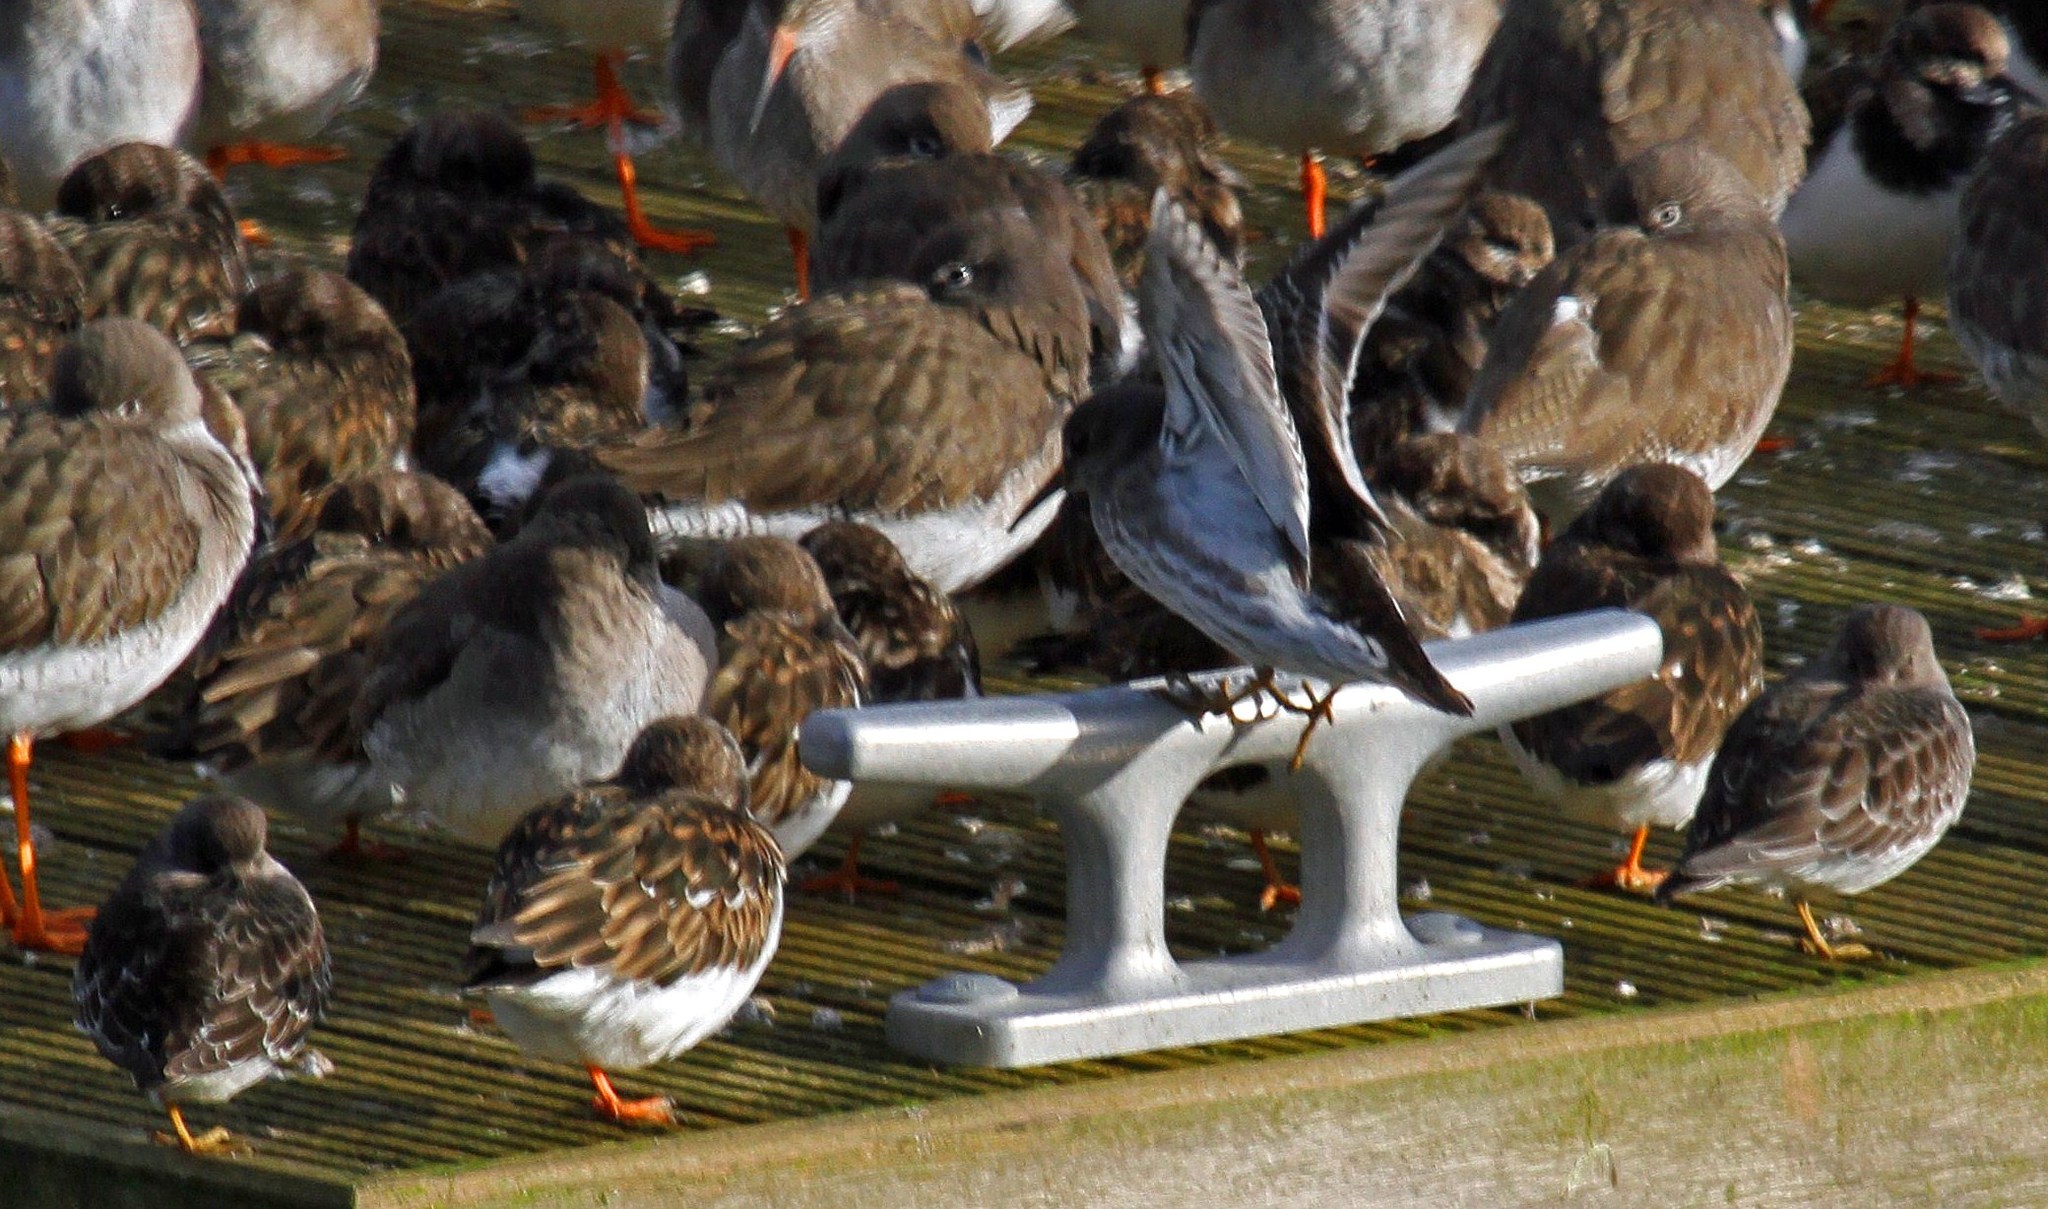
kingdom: Animalia
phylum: Chordata
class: Aves
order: Charadriiformes
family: Scolopacidae
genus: Calidris
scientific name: Calidris maritima
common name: Purple sandpiper
